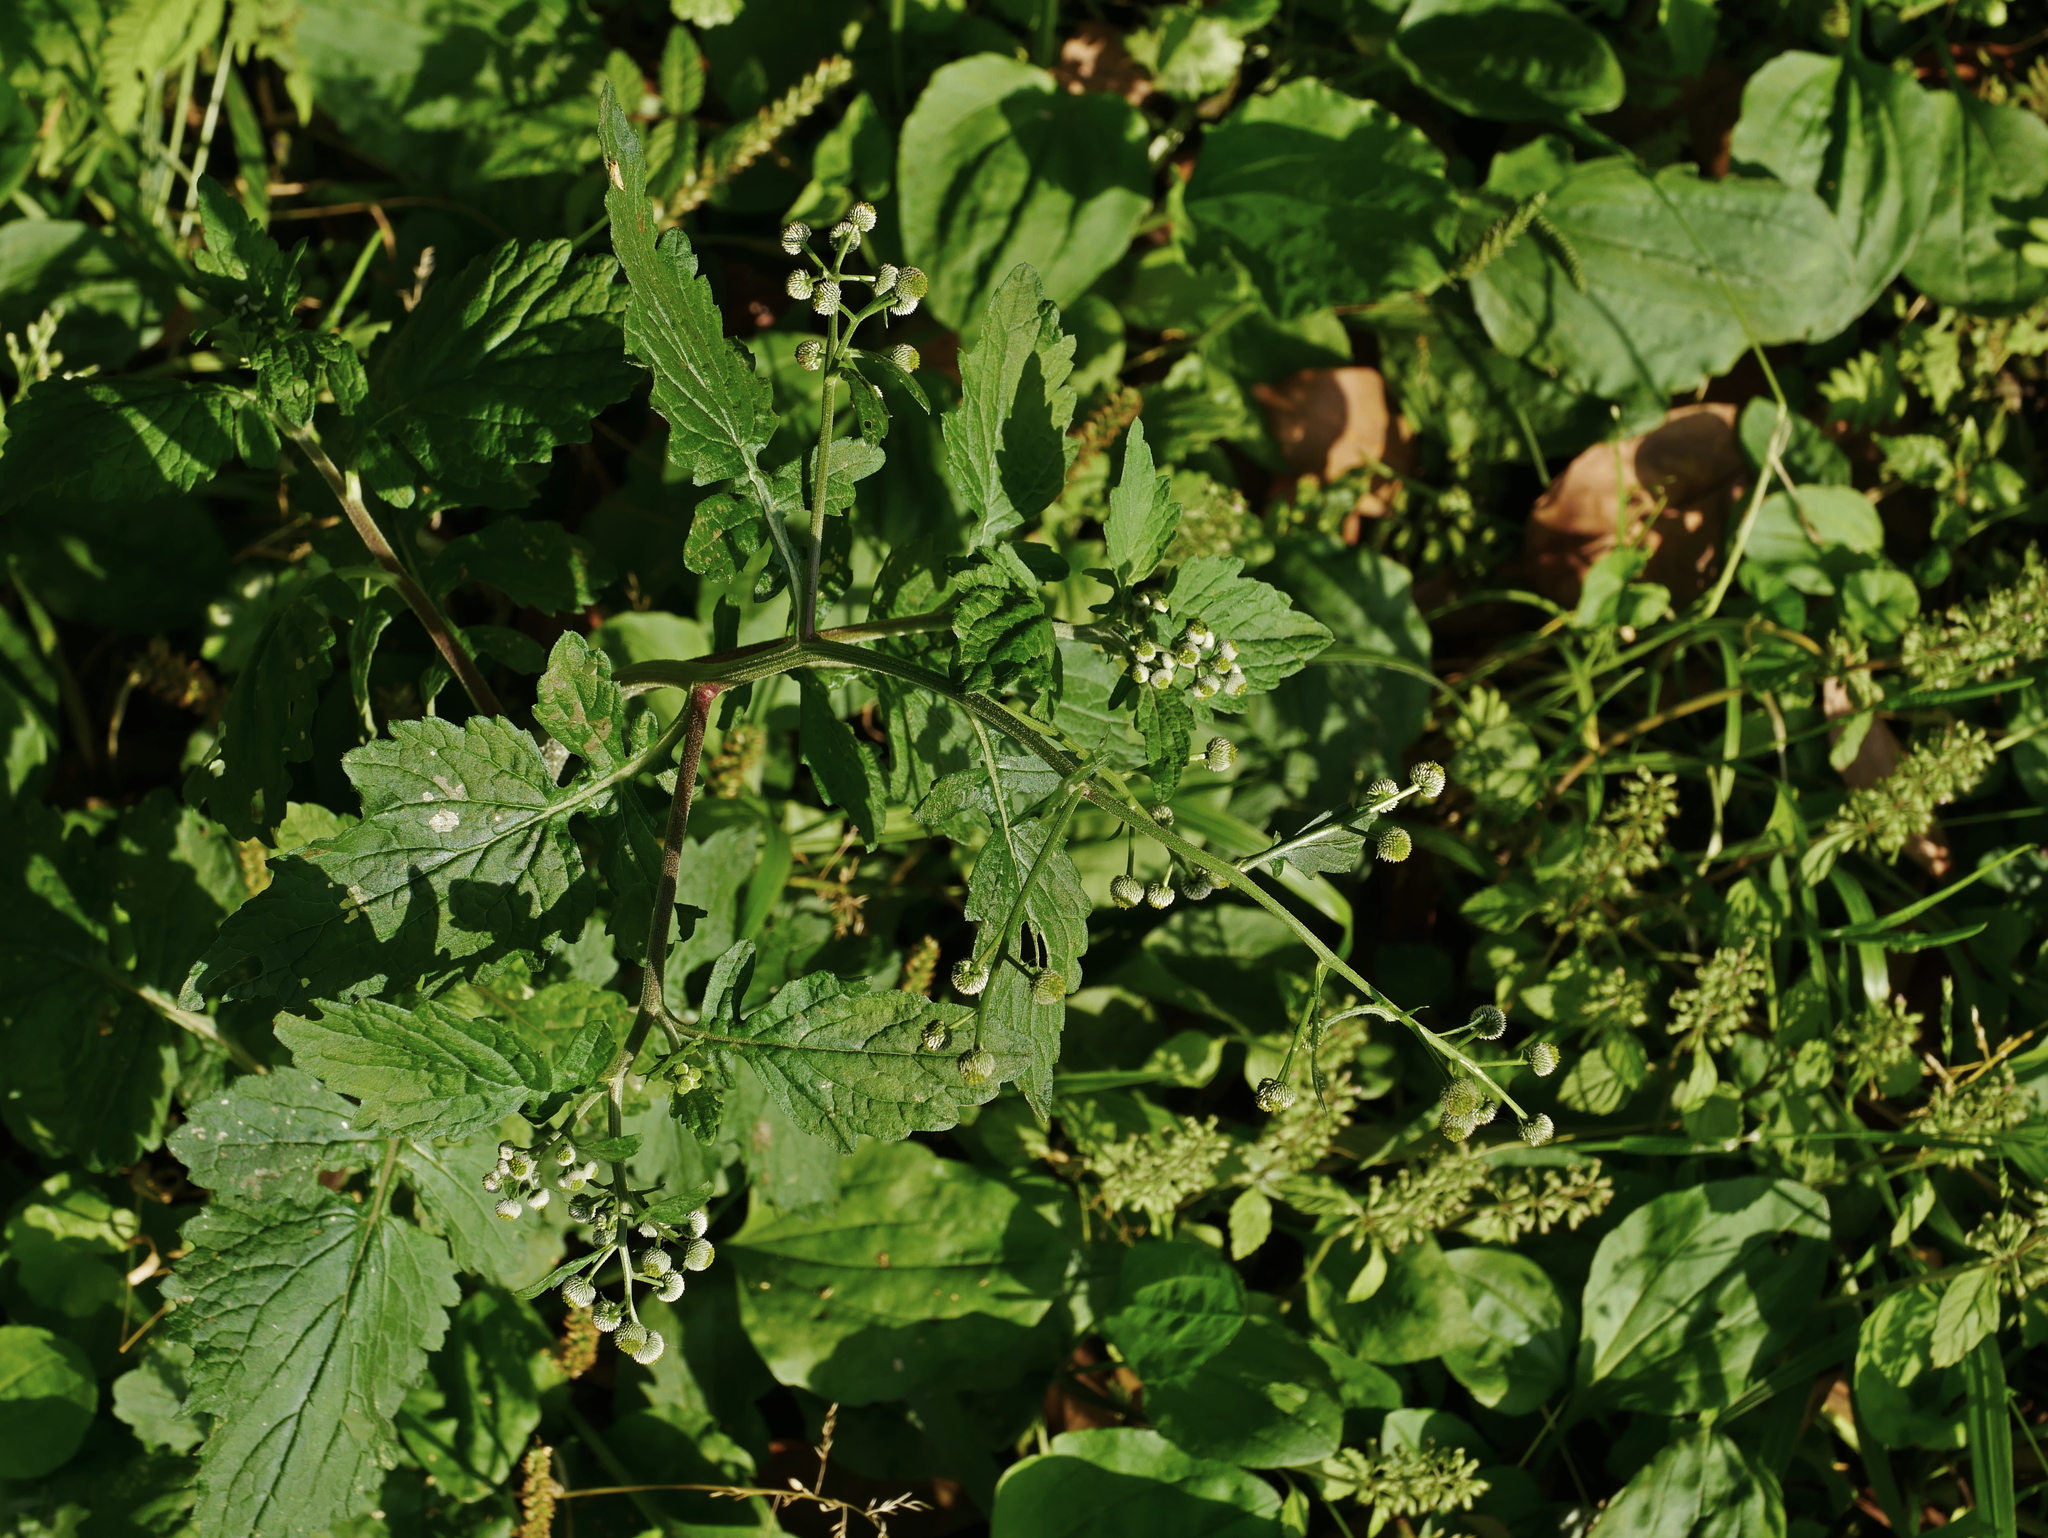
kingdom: Plantae
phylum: Tracheophyta
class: Magnoliopsida
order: Asterales
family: Asteraceae
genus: Dichrocephala
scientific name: Dichrocephala integrifolia
